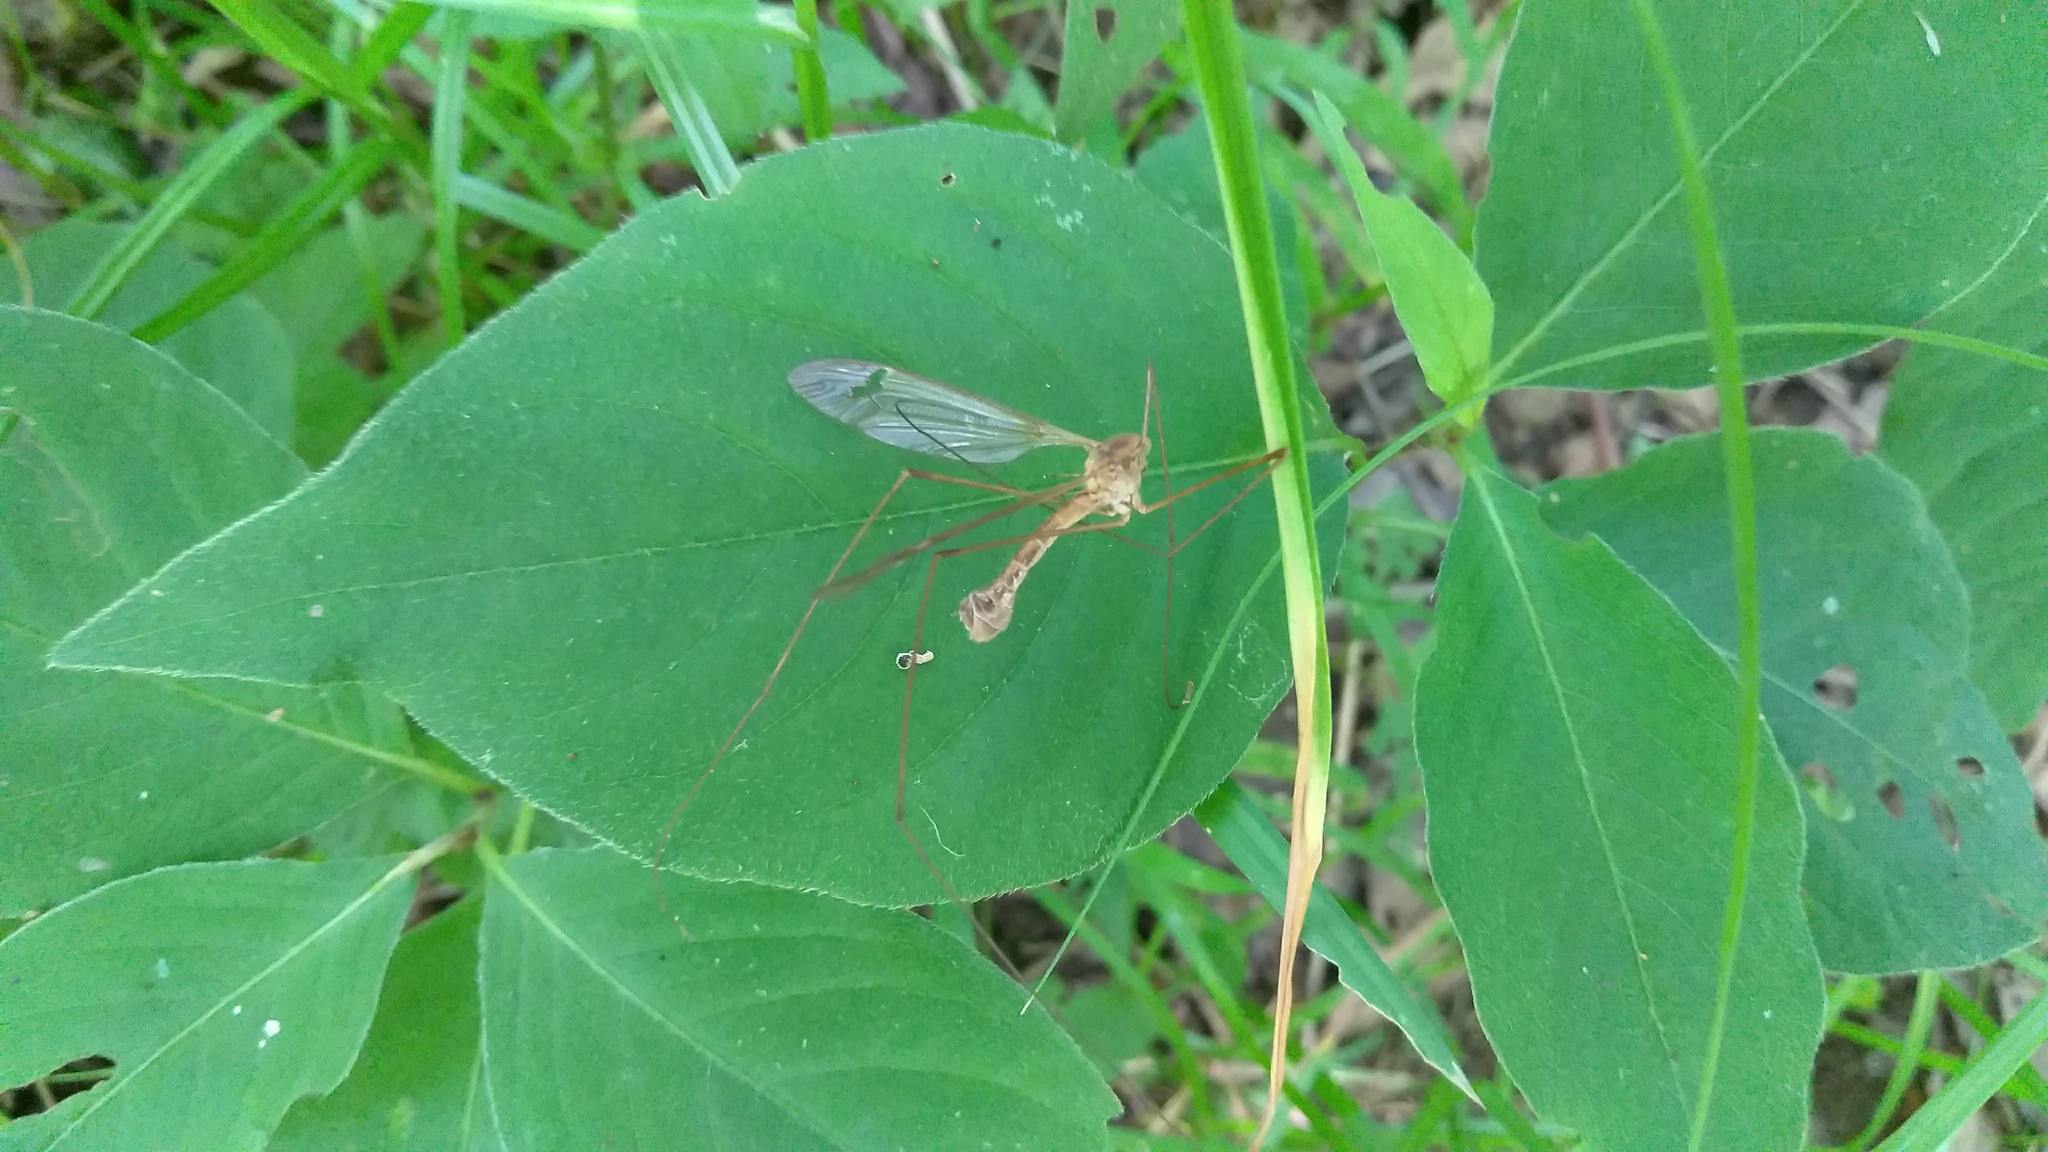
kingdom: Animalia
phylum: Arthropoda
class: Insecta
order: Diptera
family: Tipulidae
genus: Tipula
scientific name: Tipula
